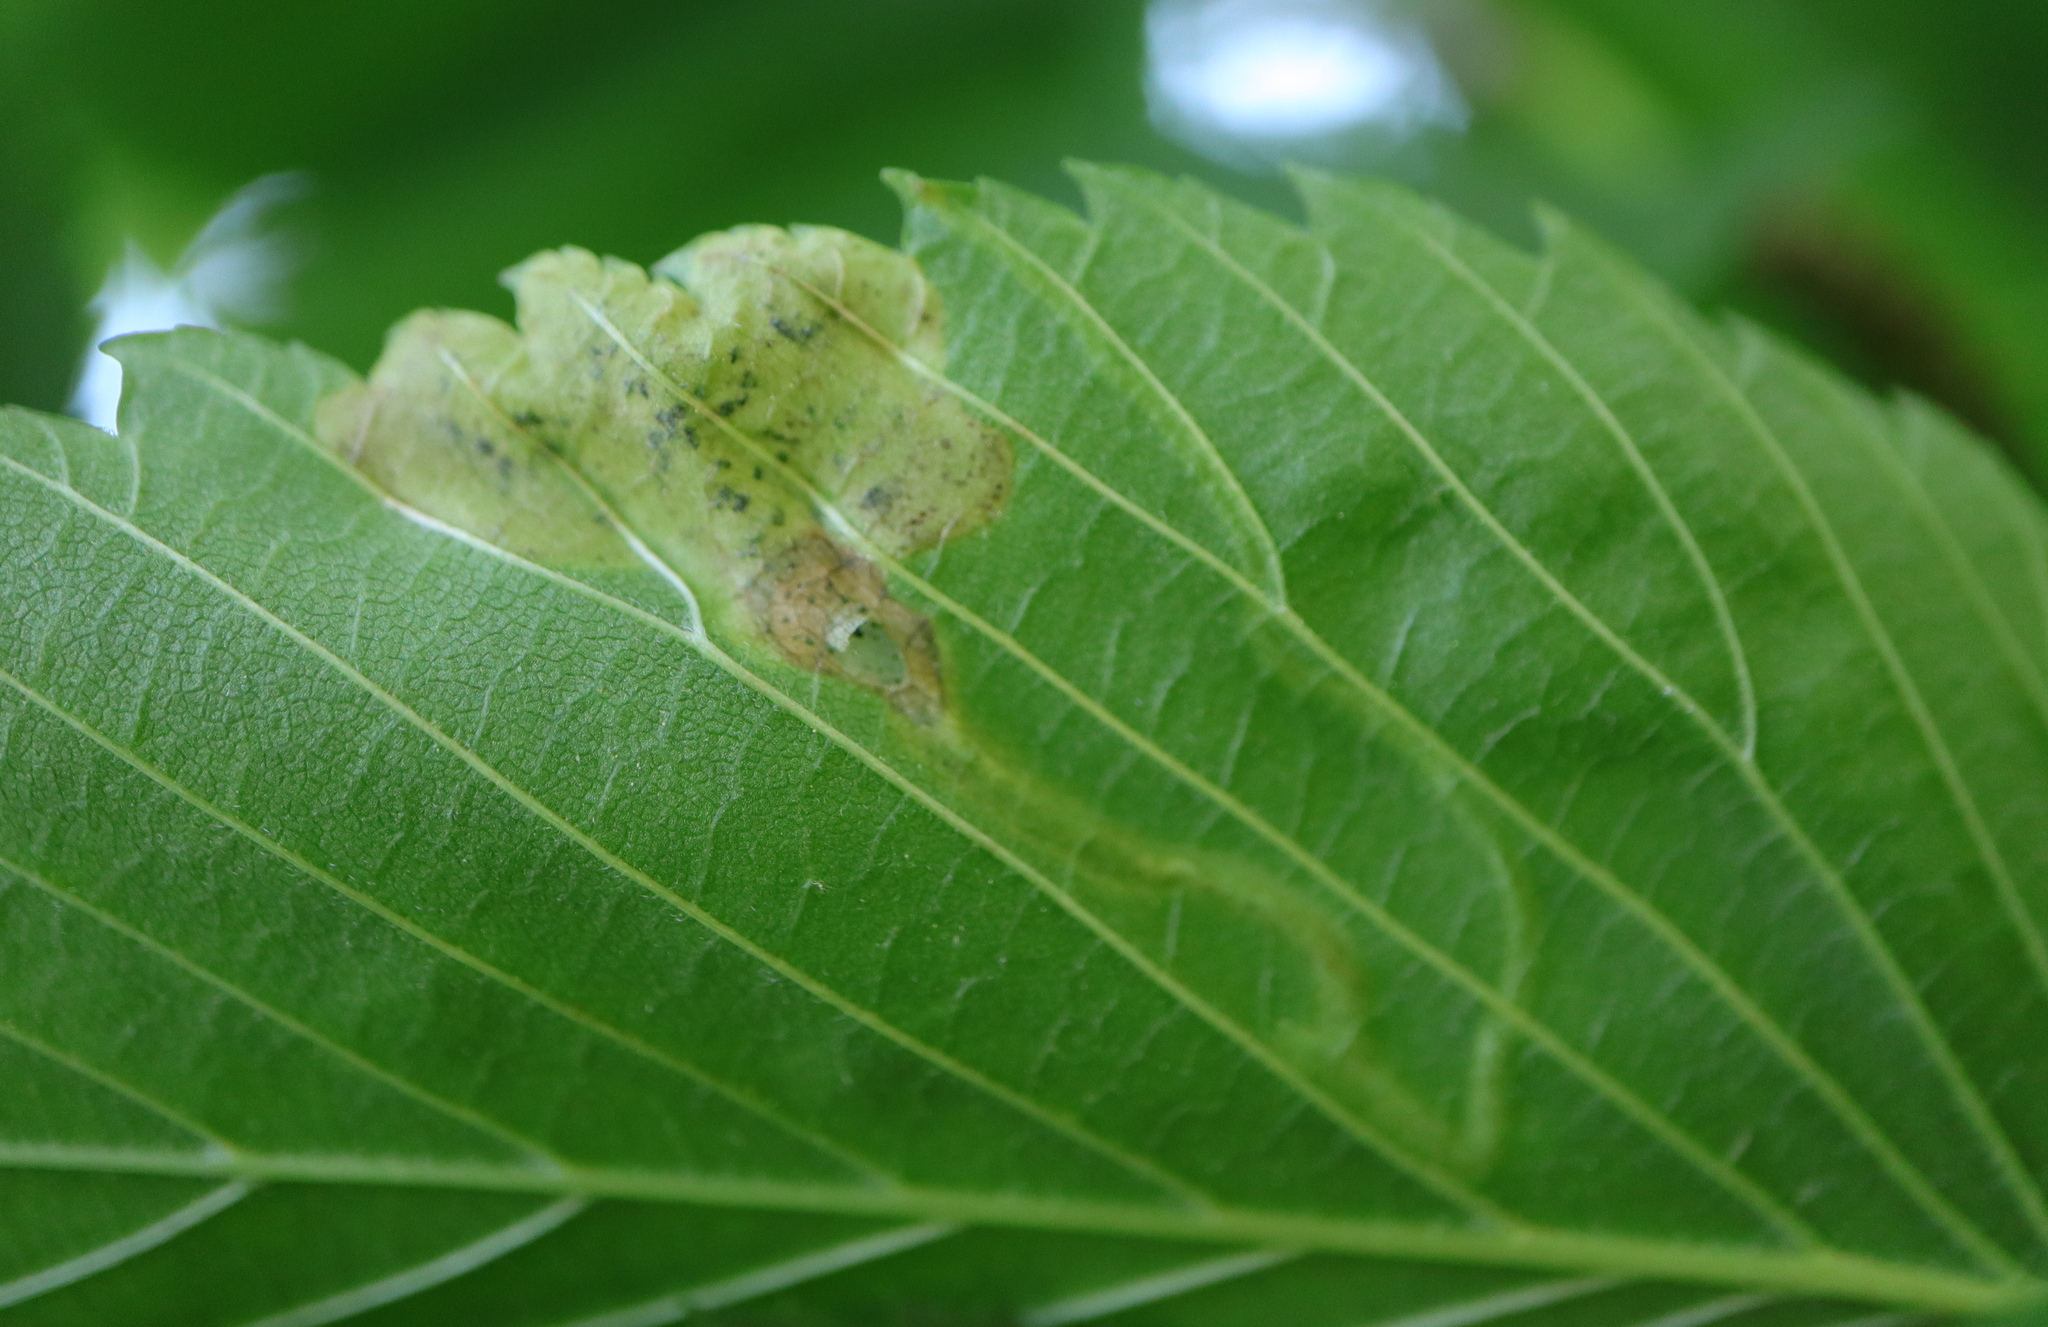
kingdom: Animalia
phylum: Arthropoda
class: Insecta
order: Diptera
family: Agromyzidae
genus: Agromyza
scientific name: Agromyza aristata
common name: Elm agromyzid leafminer
